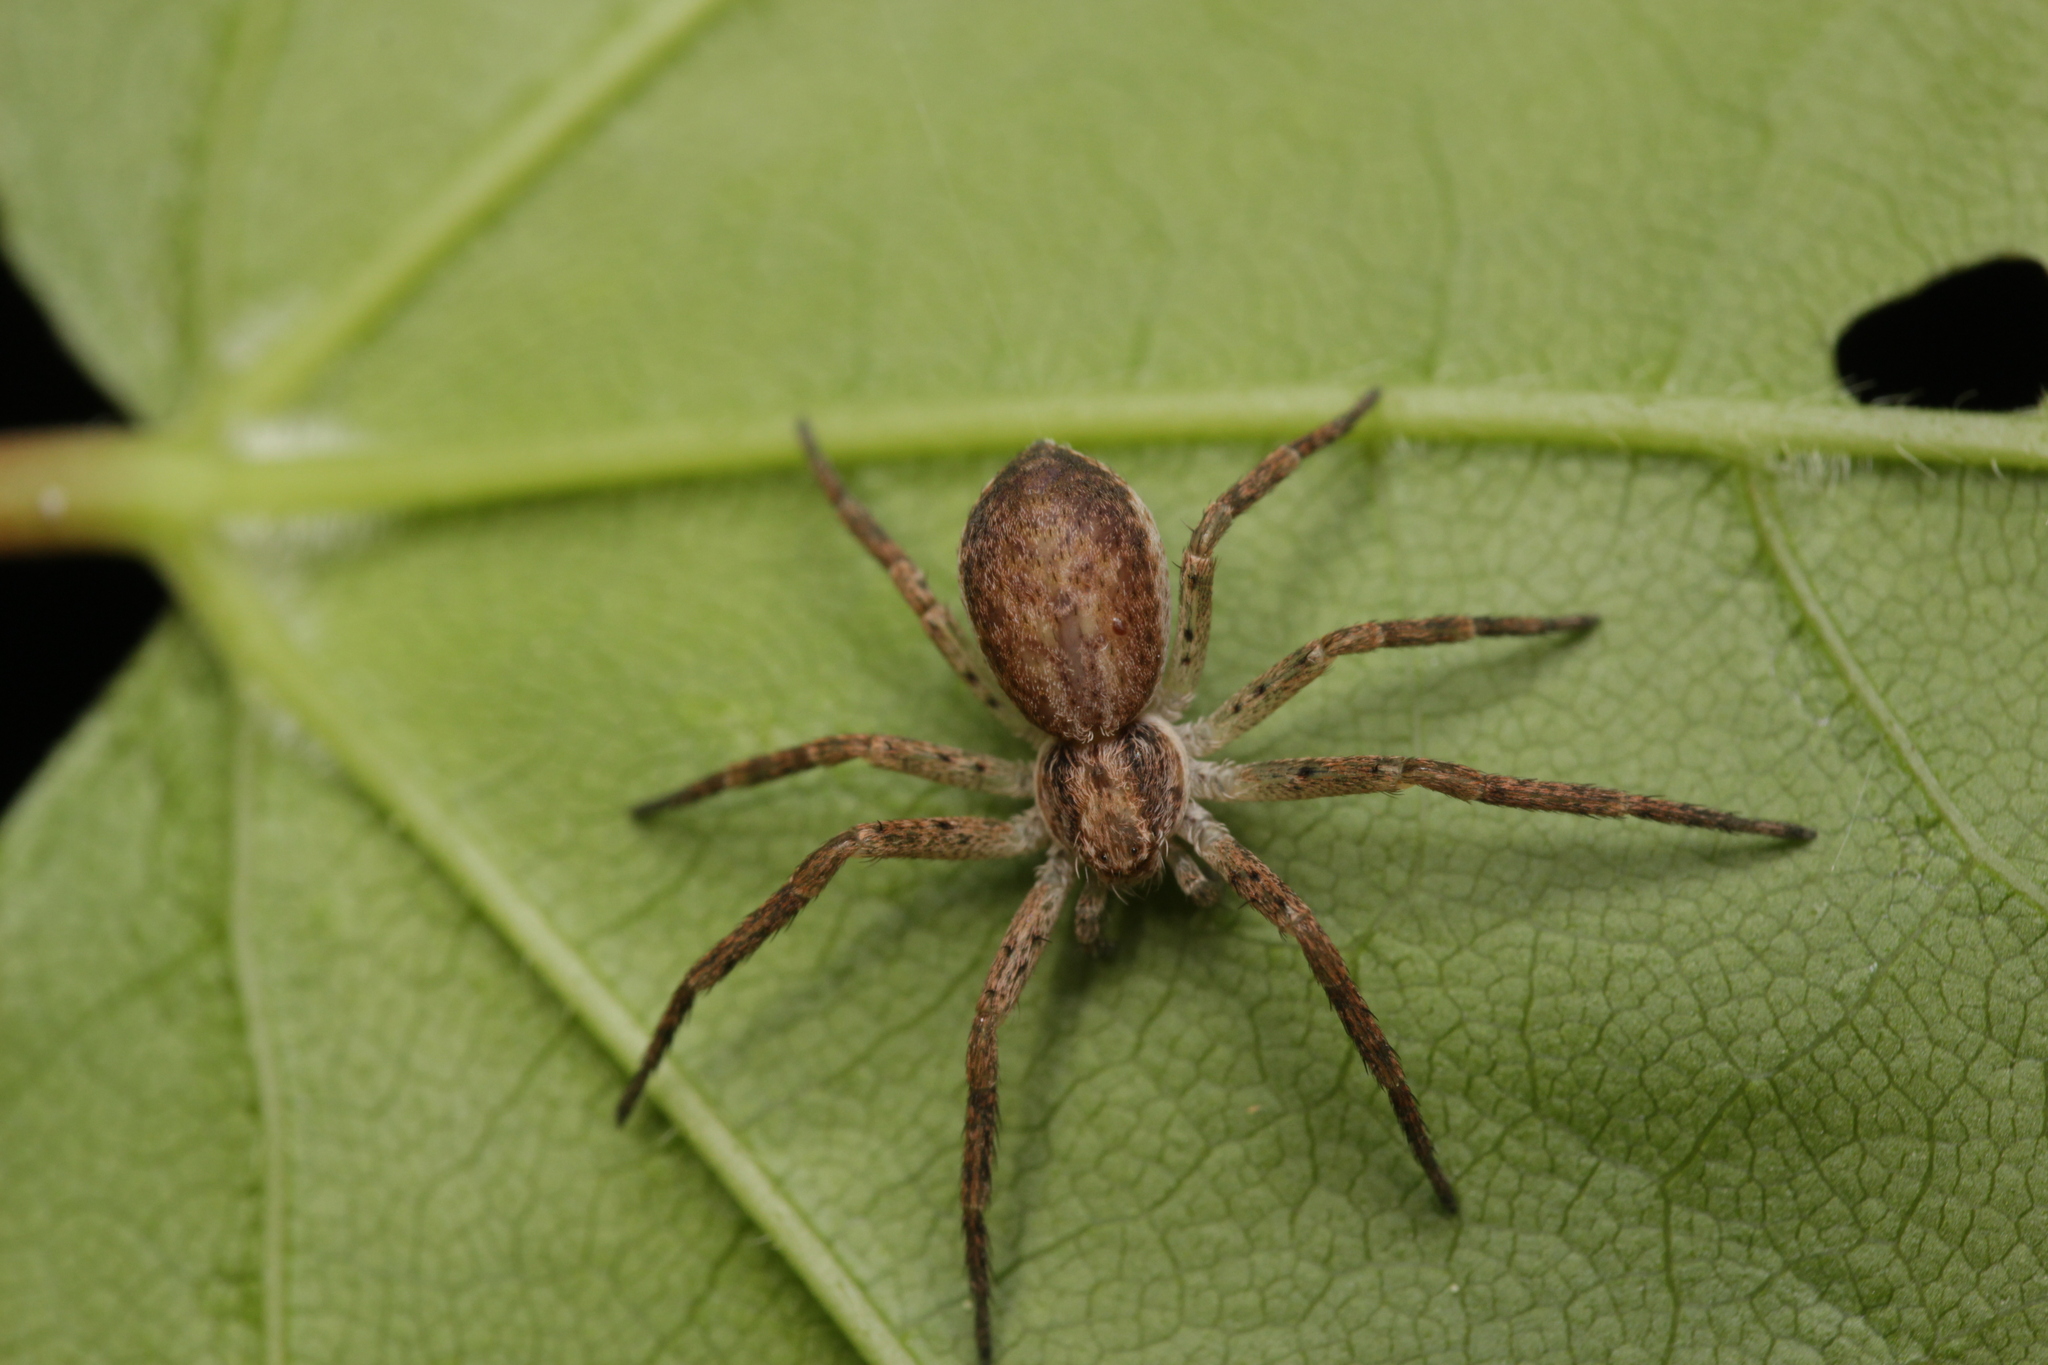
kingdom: Animalia
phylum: Arthropoda
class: Arachnida
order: Araneae
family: Philodromidae
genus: Philodromus
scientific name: Philodromus dispar
